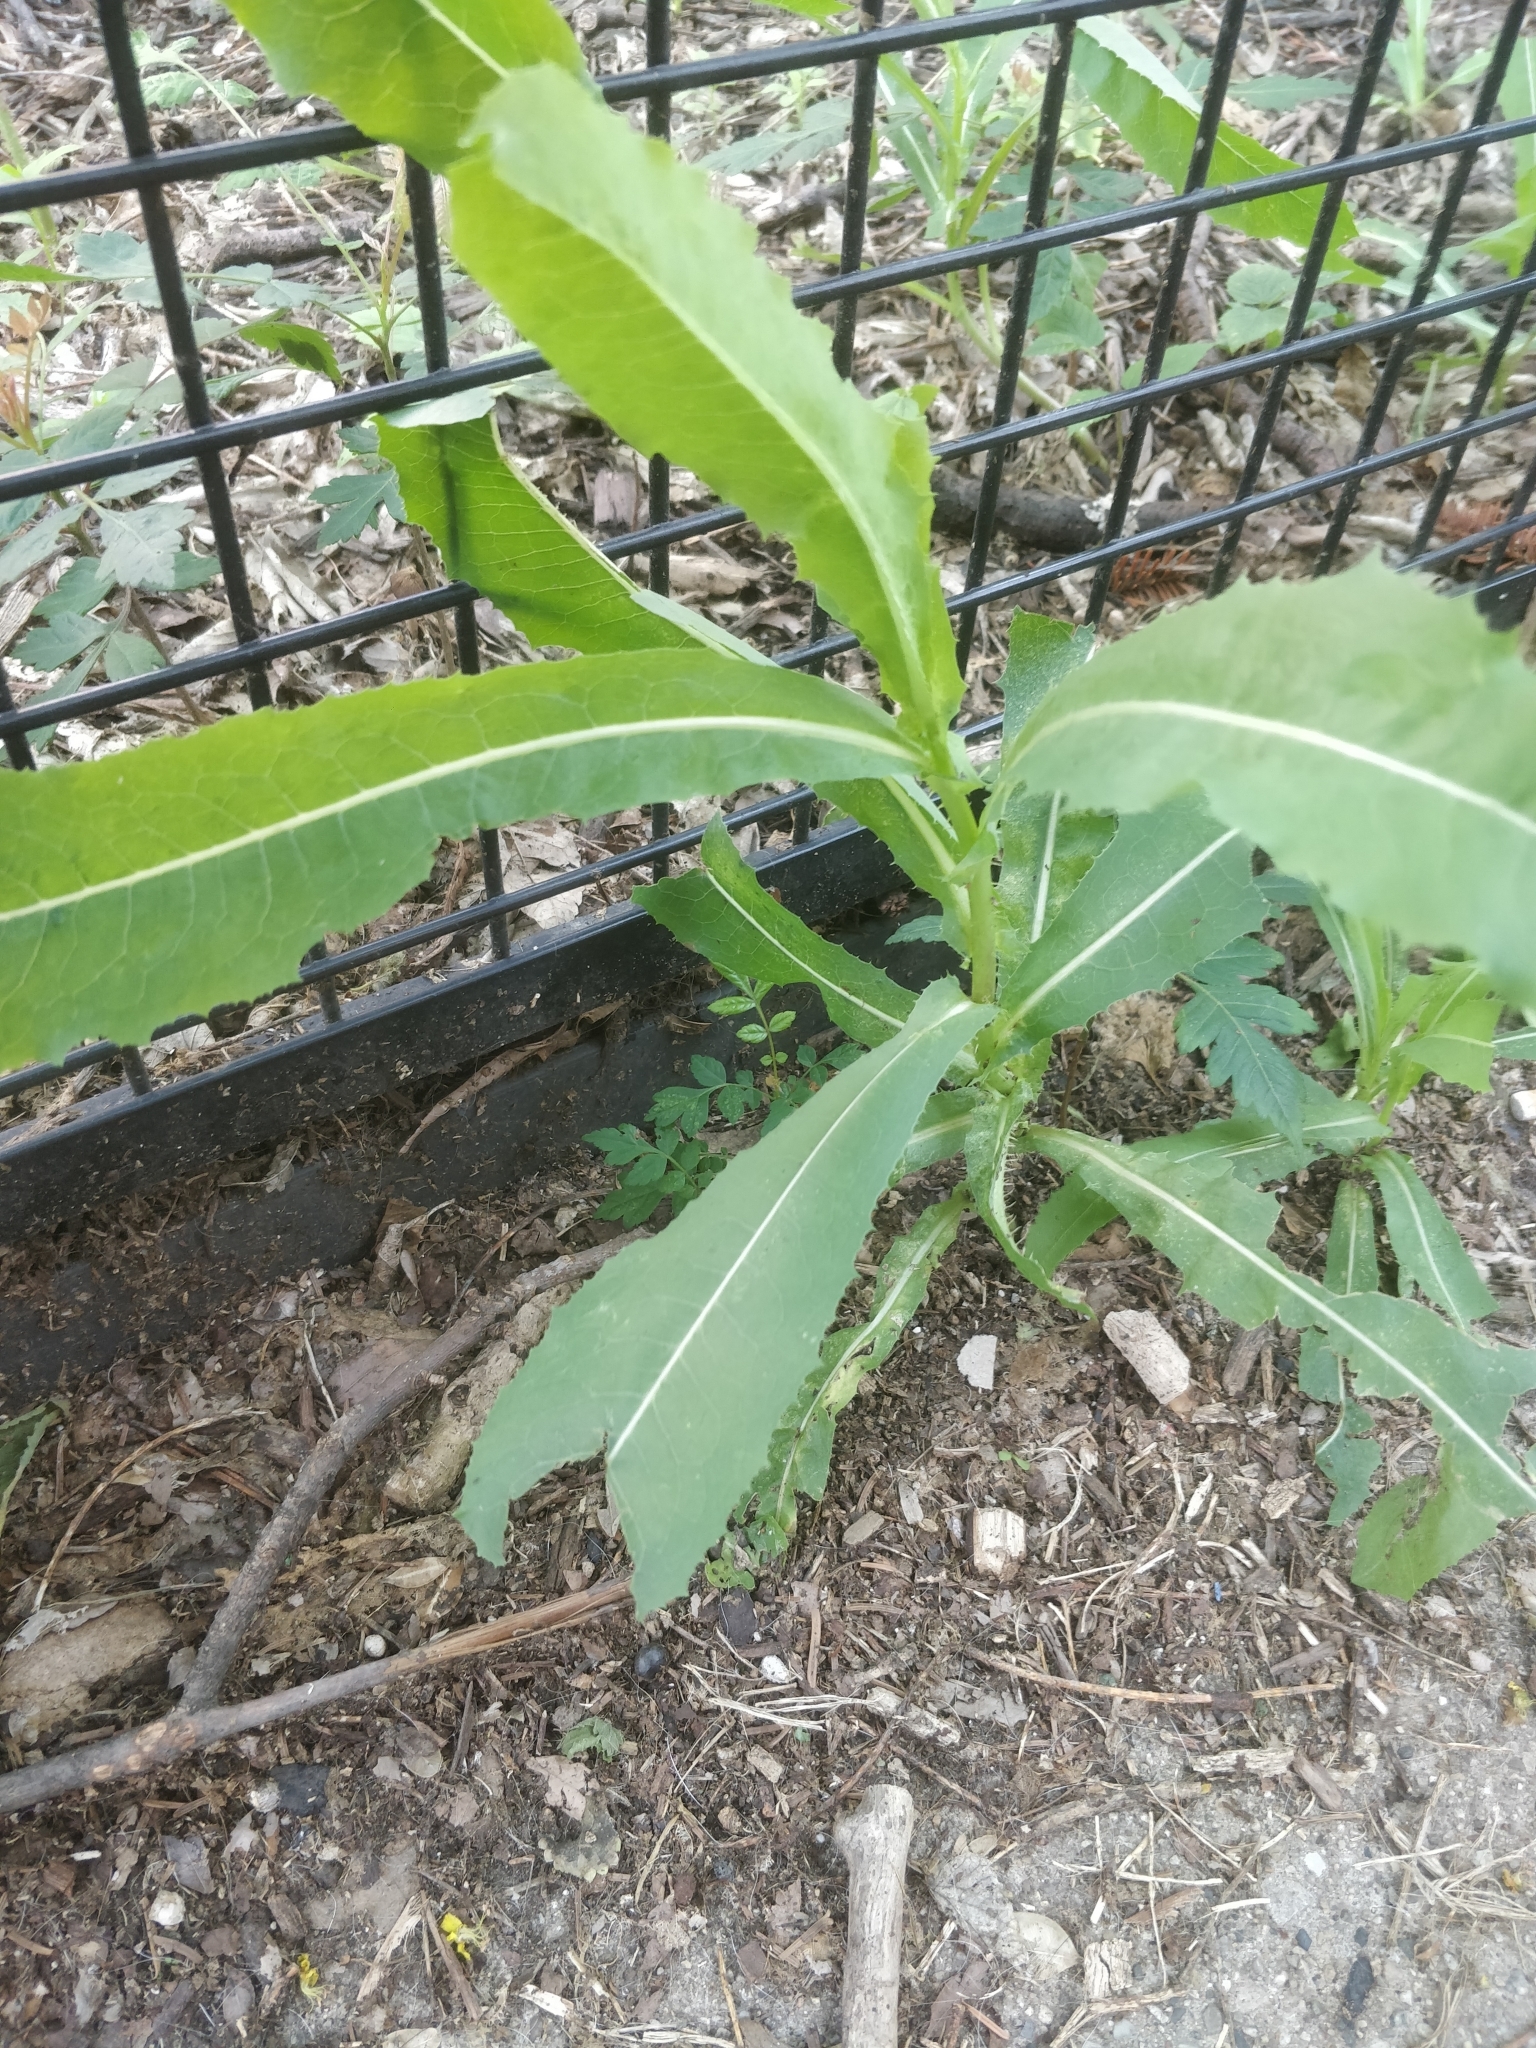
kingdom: Plantae
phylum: Tracheophyta
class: Magnoliopsida
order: Asterales
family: Asteraceae
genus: Lactuca
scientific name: Lactuca serriola
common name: Prickly lettuce
